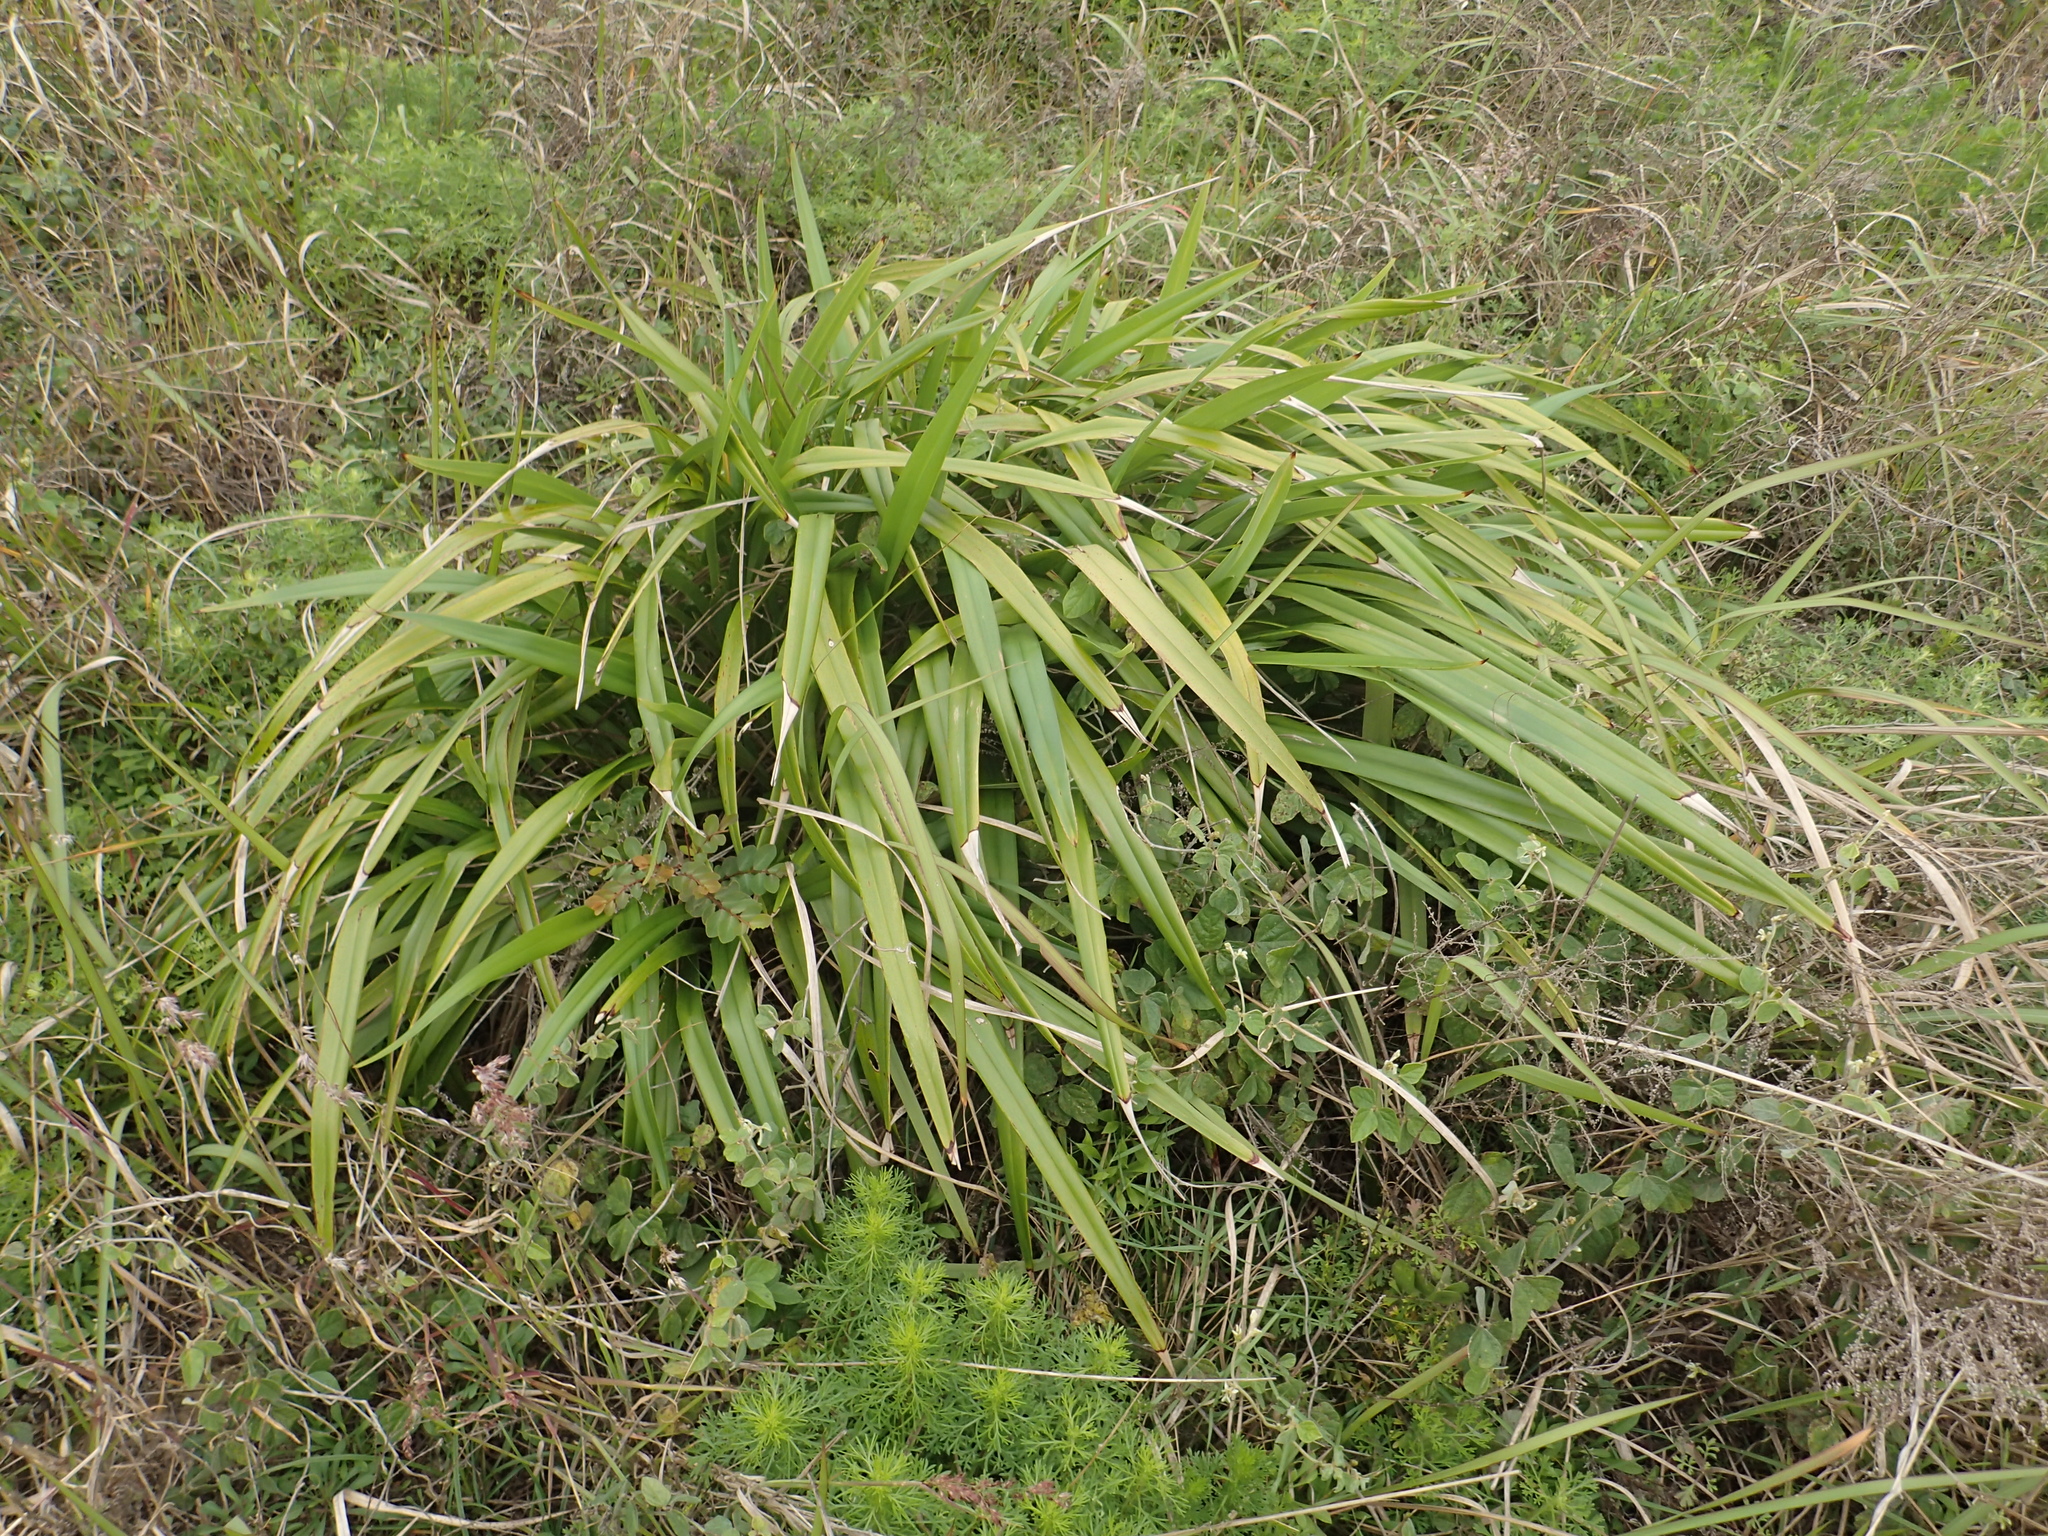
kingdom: Plantae
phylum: Tracheophyta
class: Liliopsida
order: Asparagales
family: Asphodelaceae
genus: Dianella
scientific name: Dianella ensifolia
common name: New zealand lilyplant
